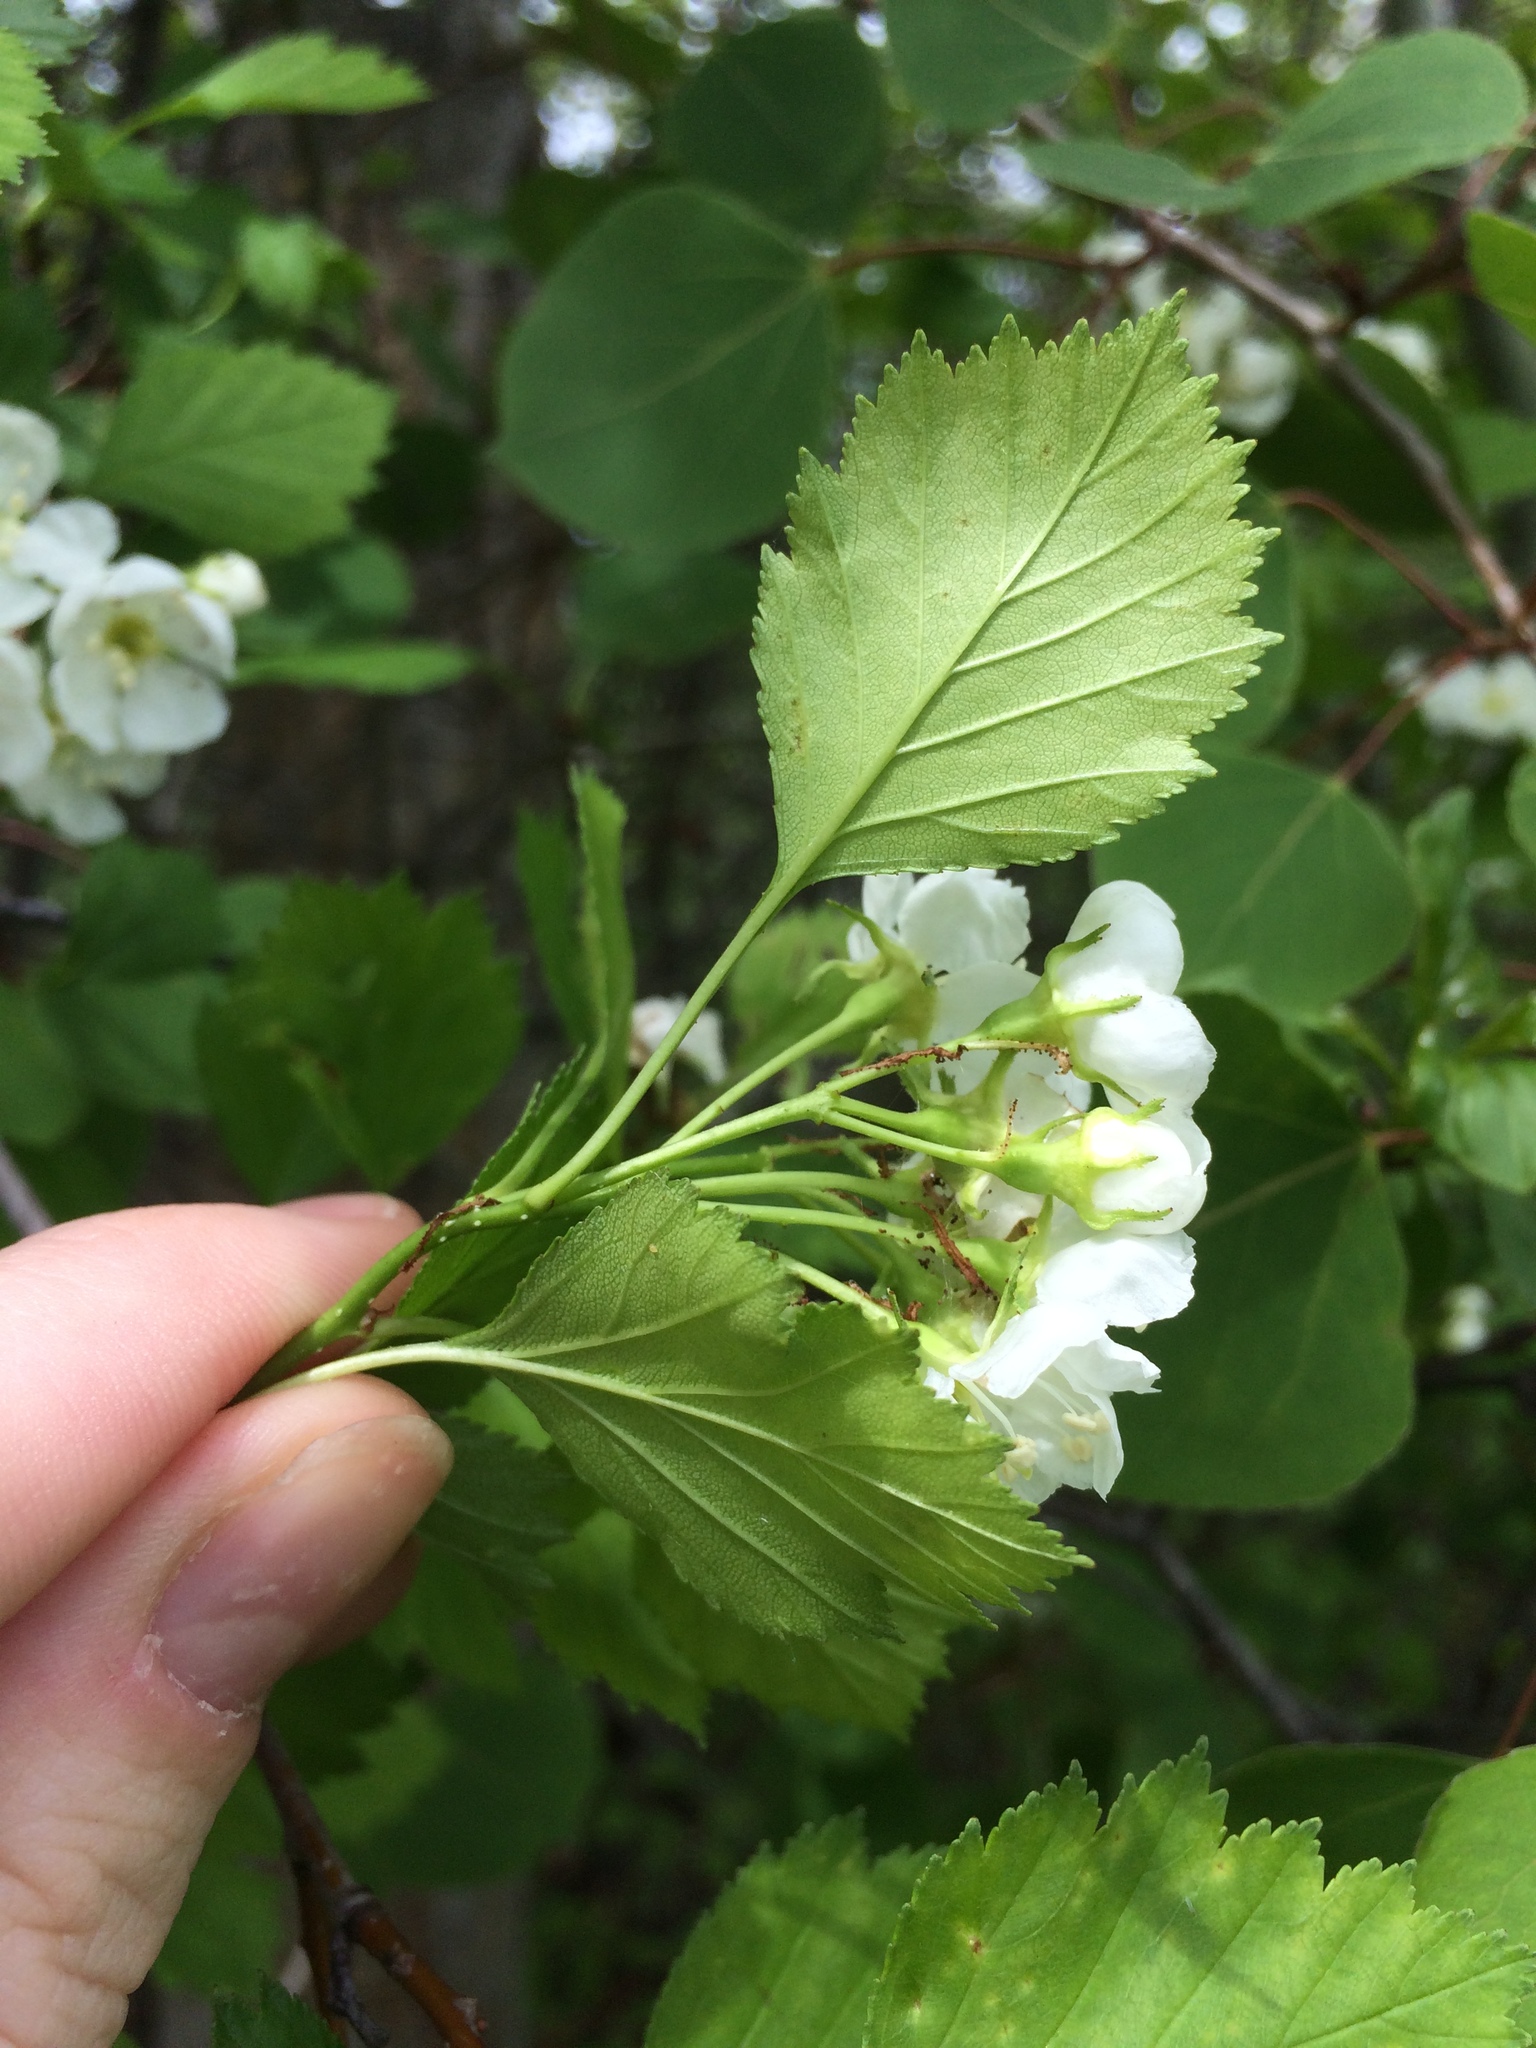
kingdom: Plantae
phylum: Tracheophyta
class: Magnoliopsida
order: Rosales
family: Rosaceae
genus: Crataegus
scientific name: Crataegus chrysocarpa
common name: Fire-berry hawthorn
